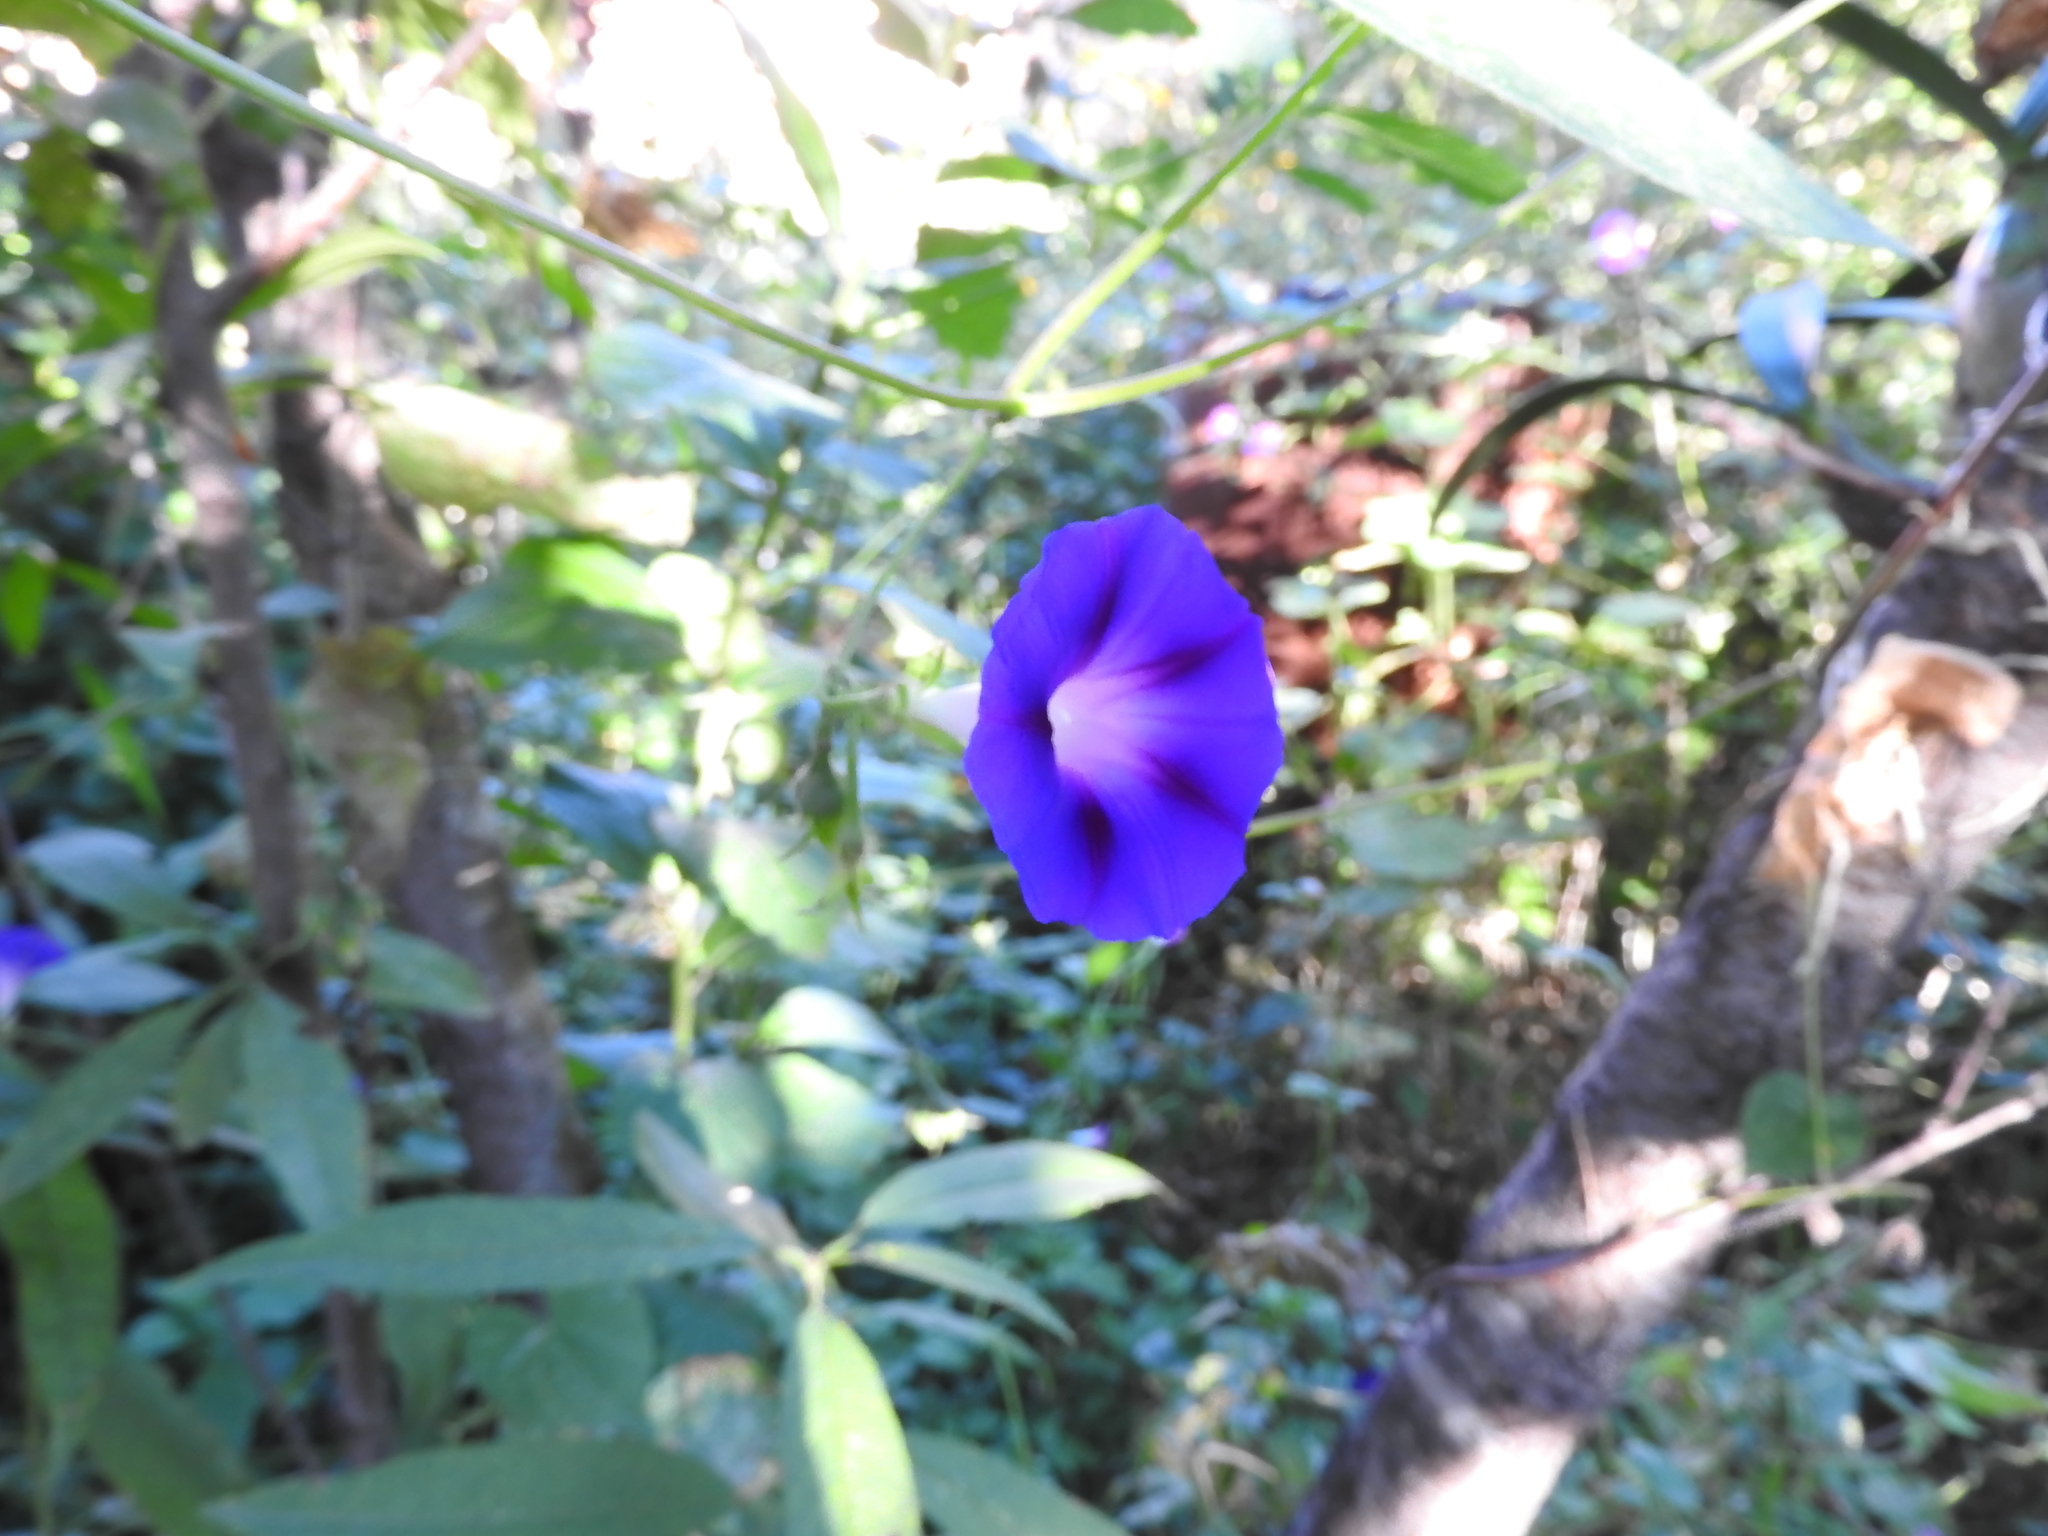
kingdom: Plantae
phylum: Tracheophyta
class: Magnoliopsida
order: Solanales
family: Convolvulaceae
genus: Ipomoea
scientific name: Ipomoea purpurea
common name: Common morning-glory
